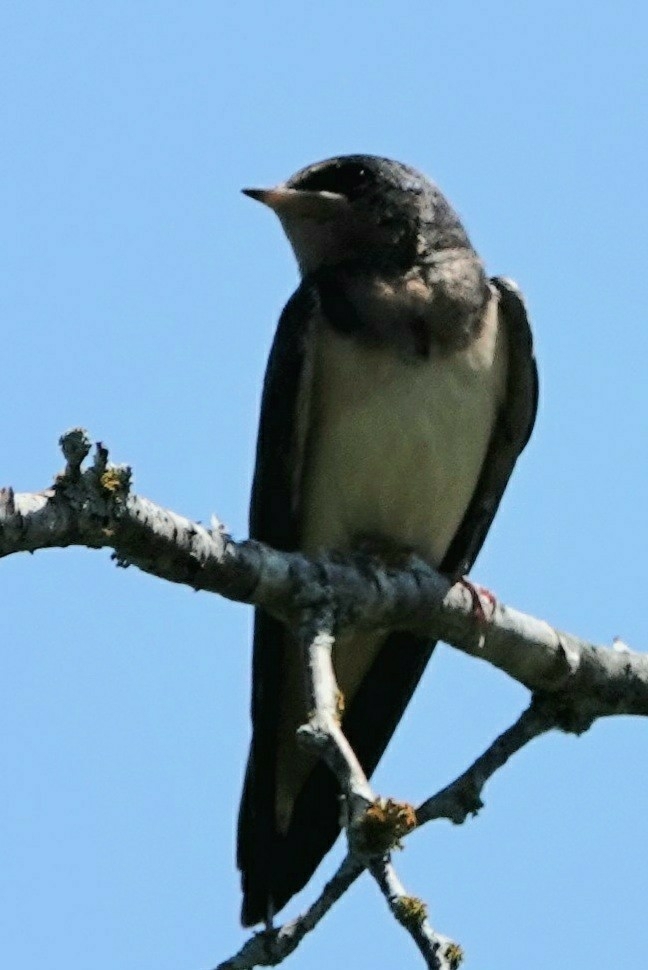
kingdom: Animalia
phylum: Chordata
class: Aves
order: Passeriformes
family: Hirundinidae
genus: Hirundo
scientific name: Hirundo rustica
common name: Barn swallow
